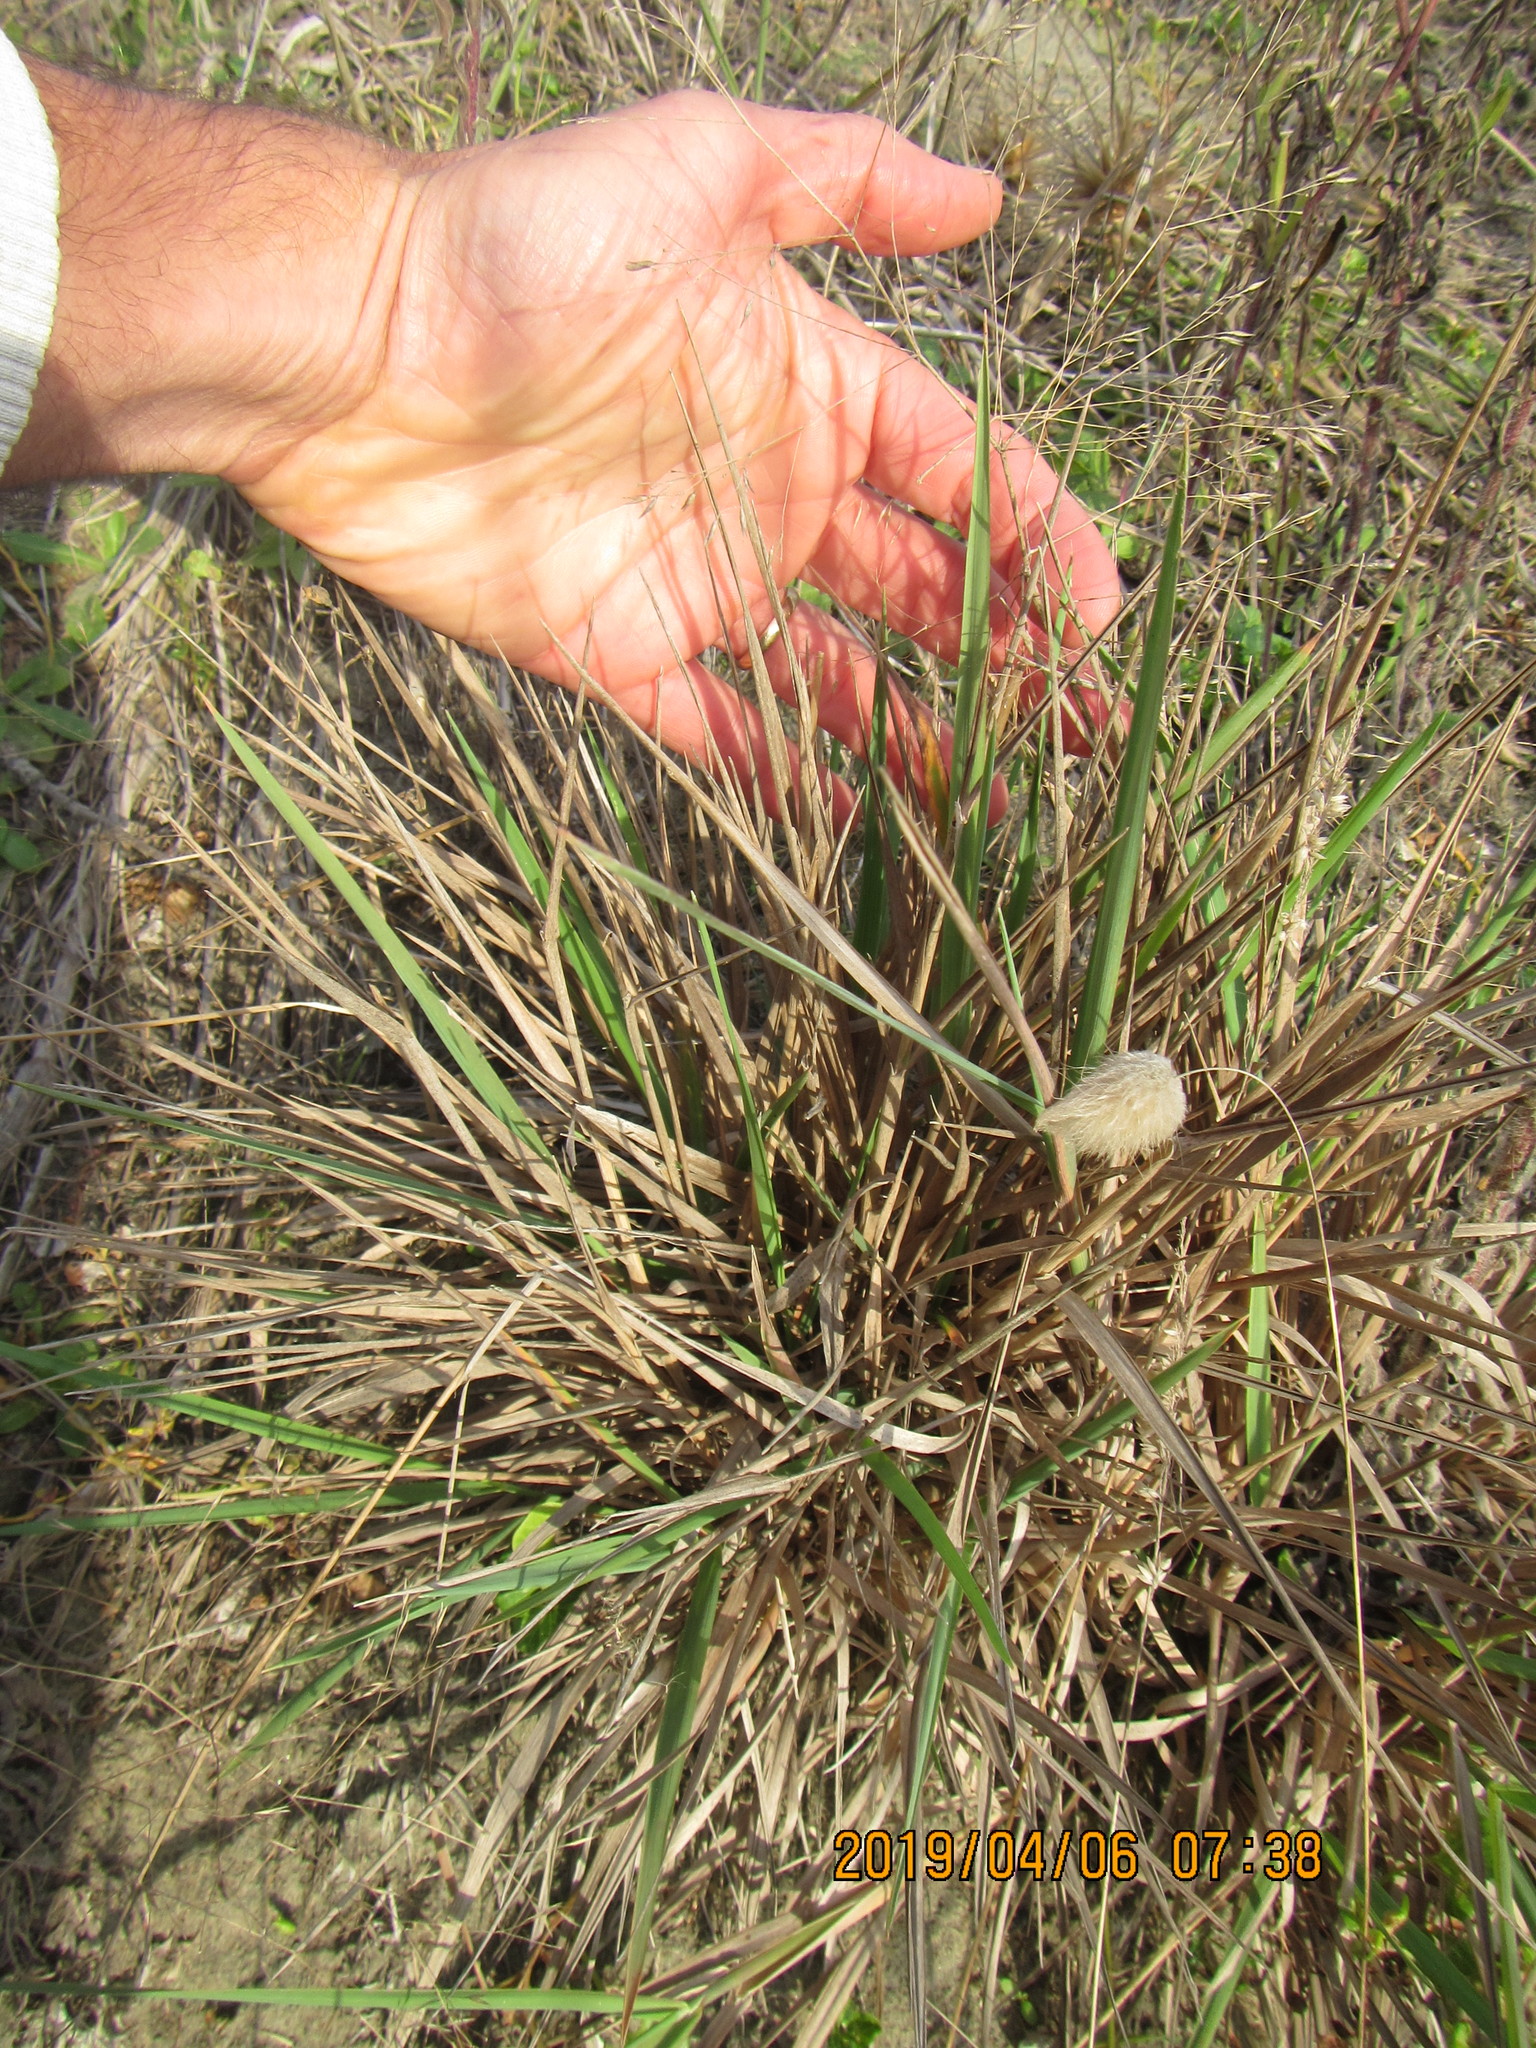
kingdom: Plantae
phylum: Tracheophyta
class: Liliopsida
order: Poales
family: Poaceae
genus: Lachnagrostis
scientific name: Lachnagrostis billardierei
